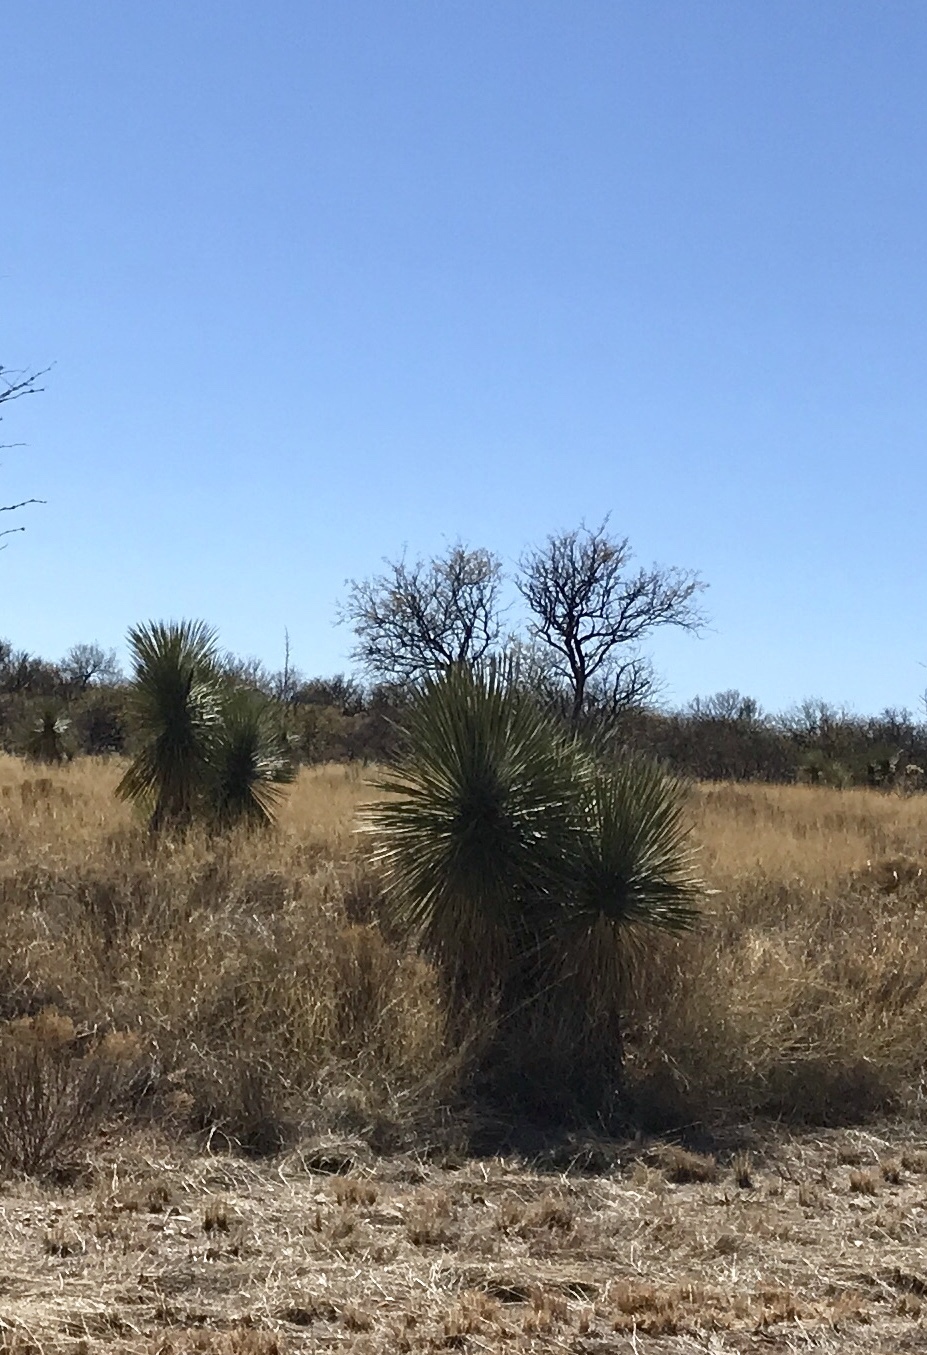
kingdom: Plantae
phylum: Tracheophyta
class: Liliopsida
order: Asparagales
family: Asparagaceae
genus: Yucca
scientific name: Yucca elata
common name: Palmella
